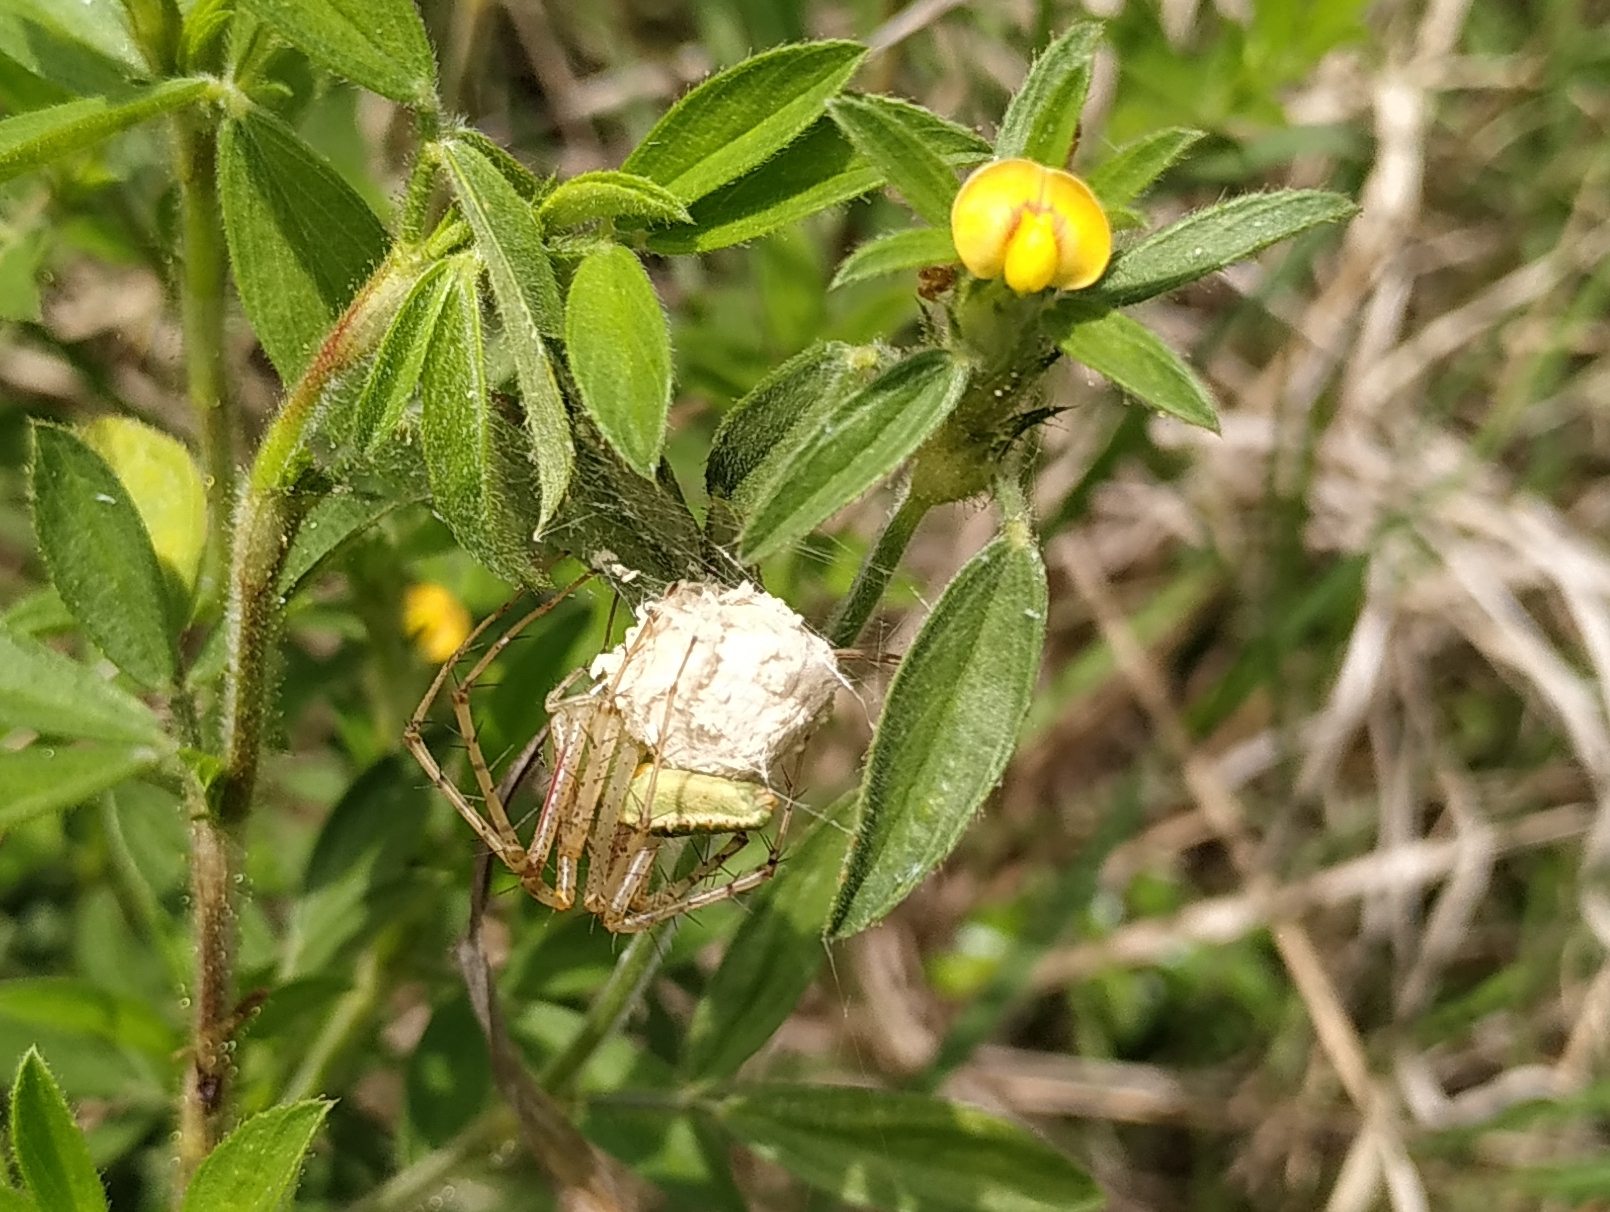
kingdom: Animalia
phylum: Arthropoda
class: Arachnida
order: Araneae
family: Oxyopidae
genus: Peucetia
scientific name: Peucetia viridana
